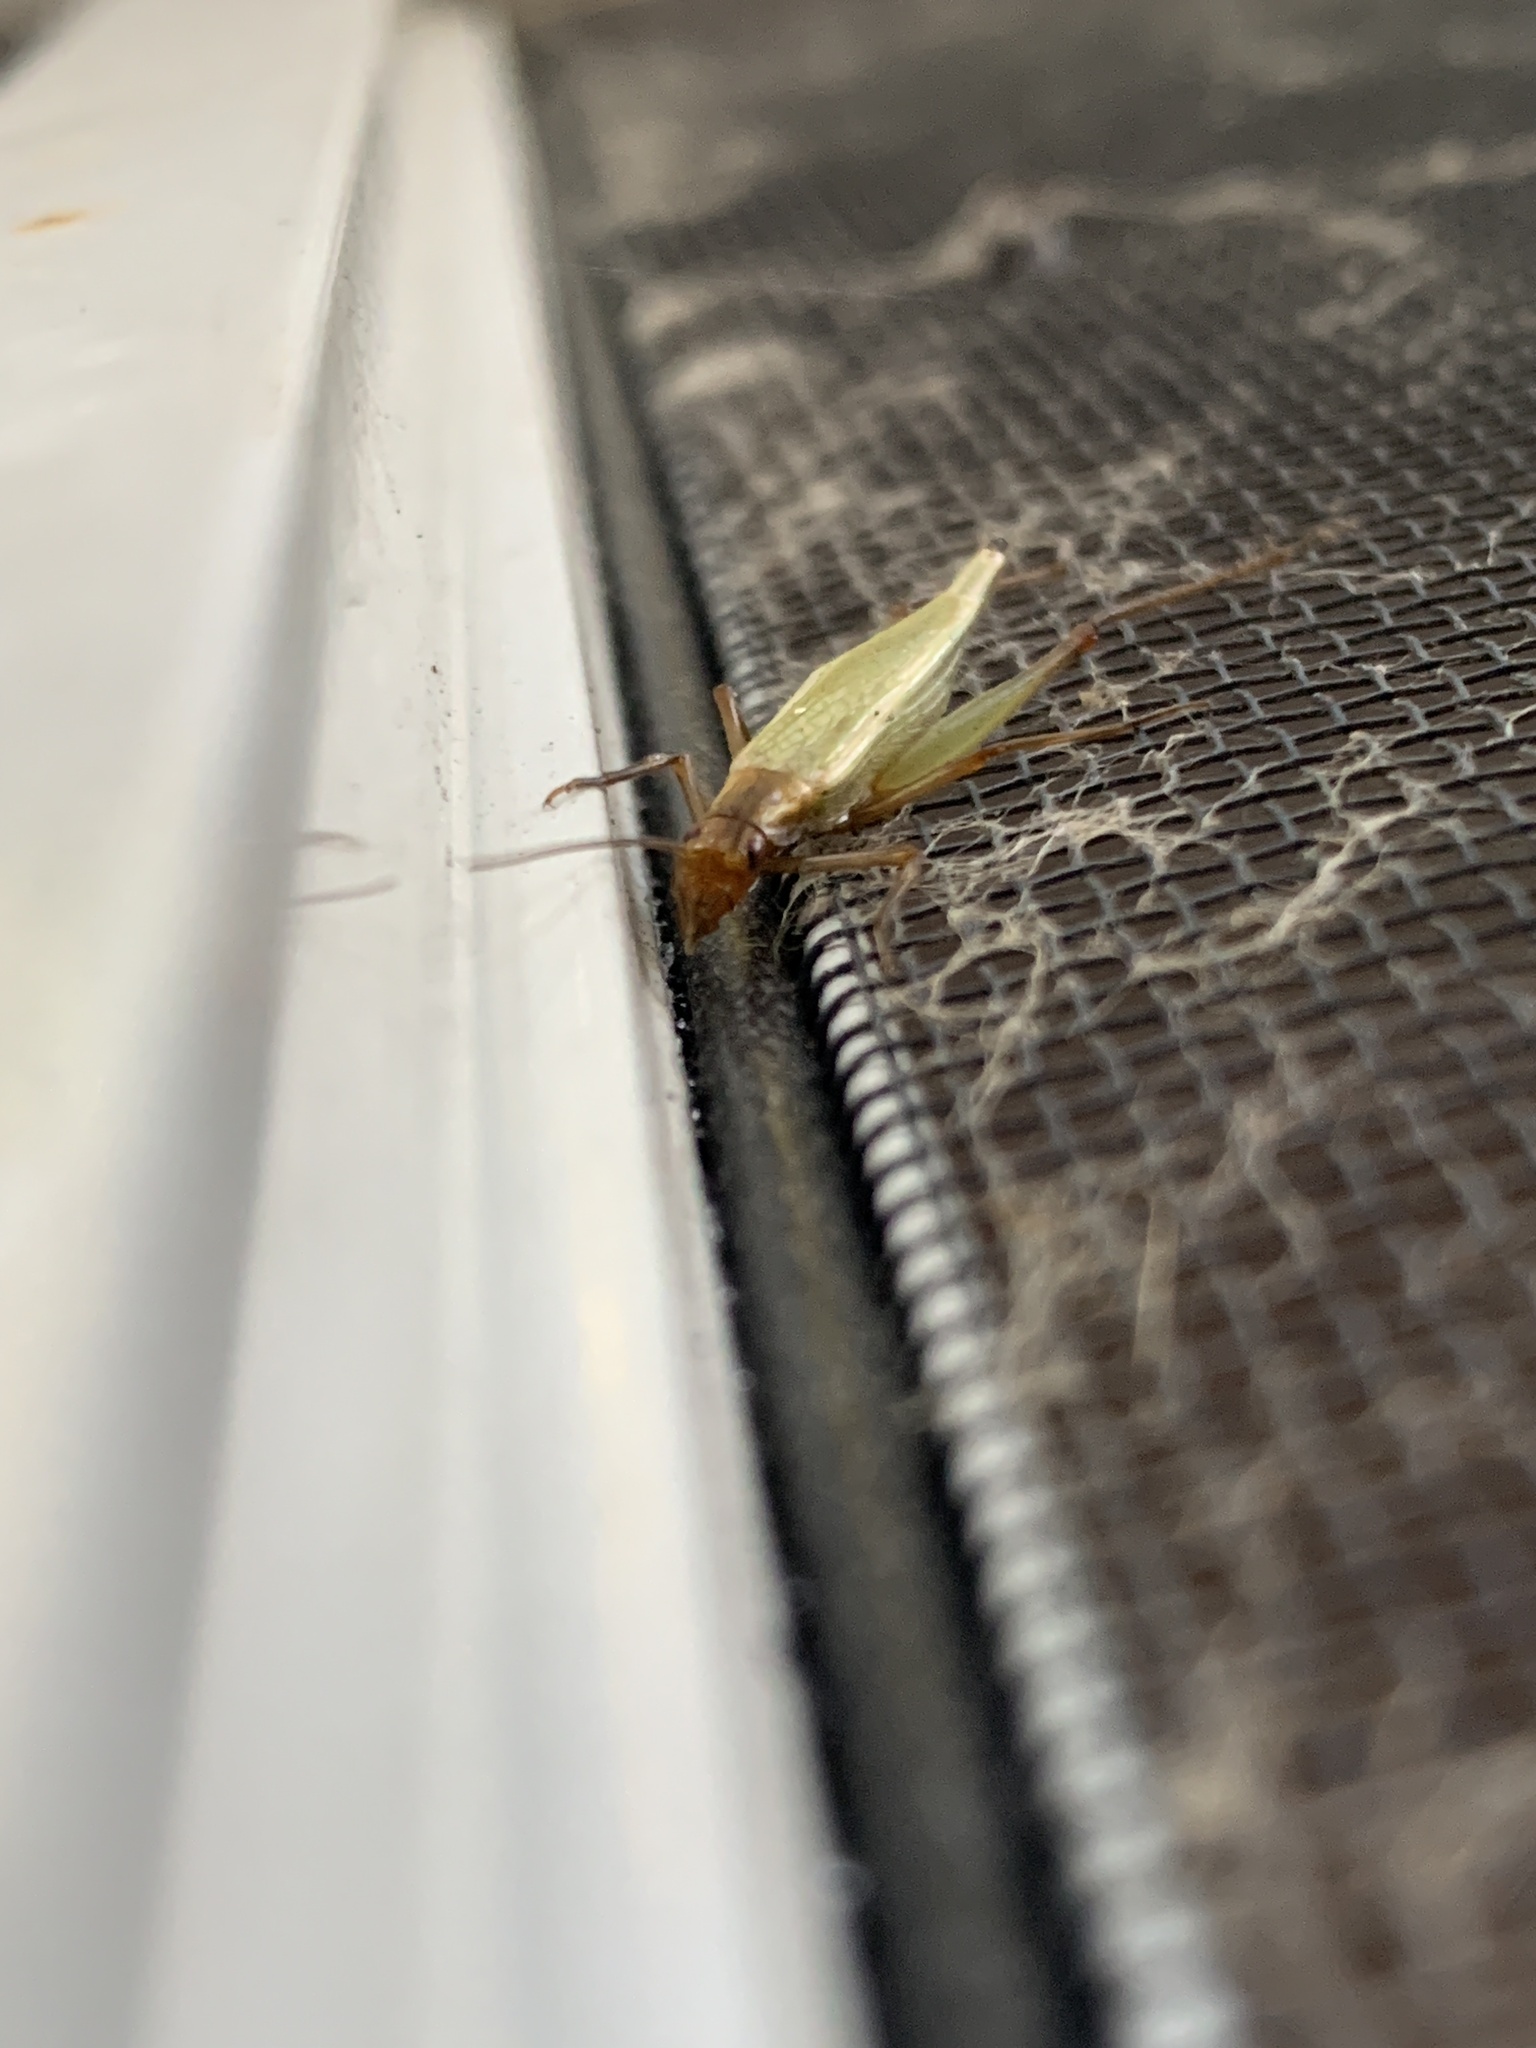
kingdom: Animalia
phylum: Arthropoda
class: Insecta
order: Orthoptera
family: Gryllidae
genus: Oecanthus
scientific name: Oecanthus pini
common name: Pine tree cricket
